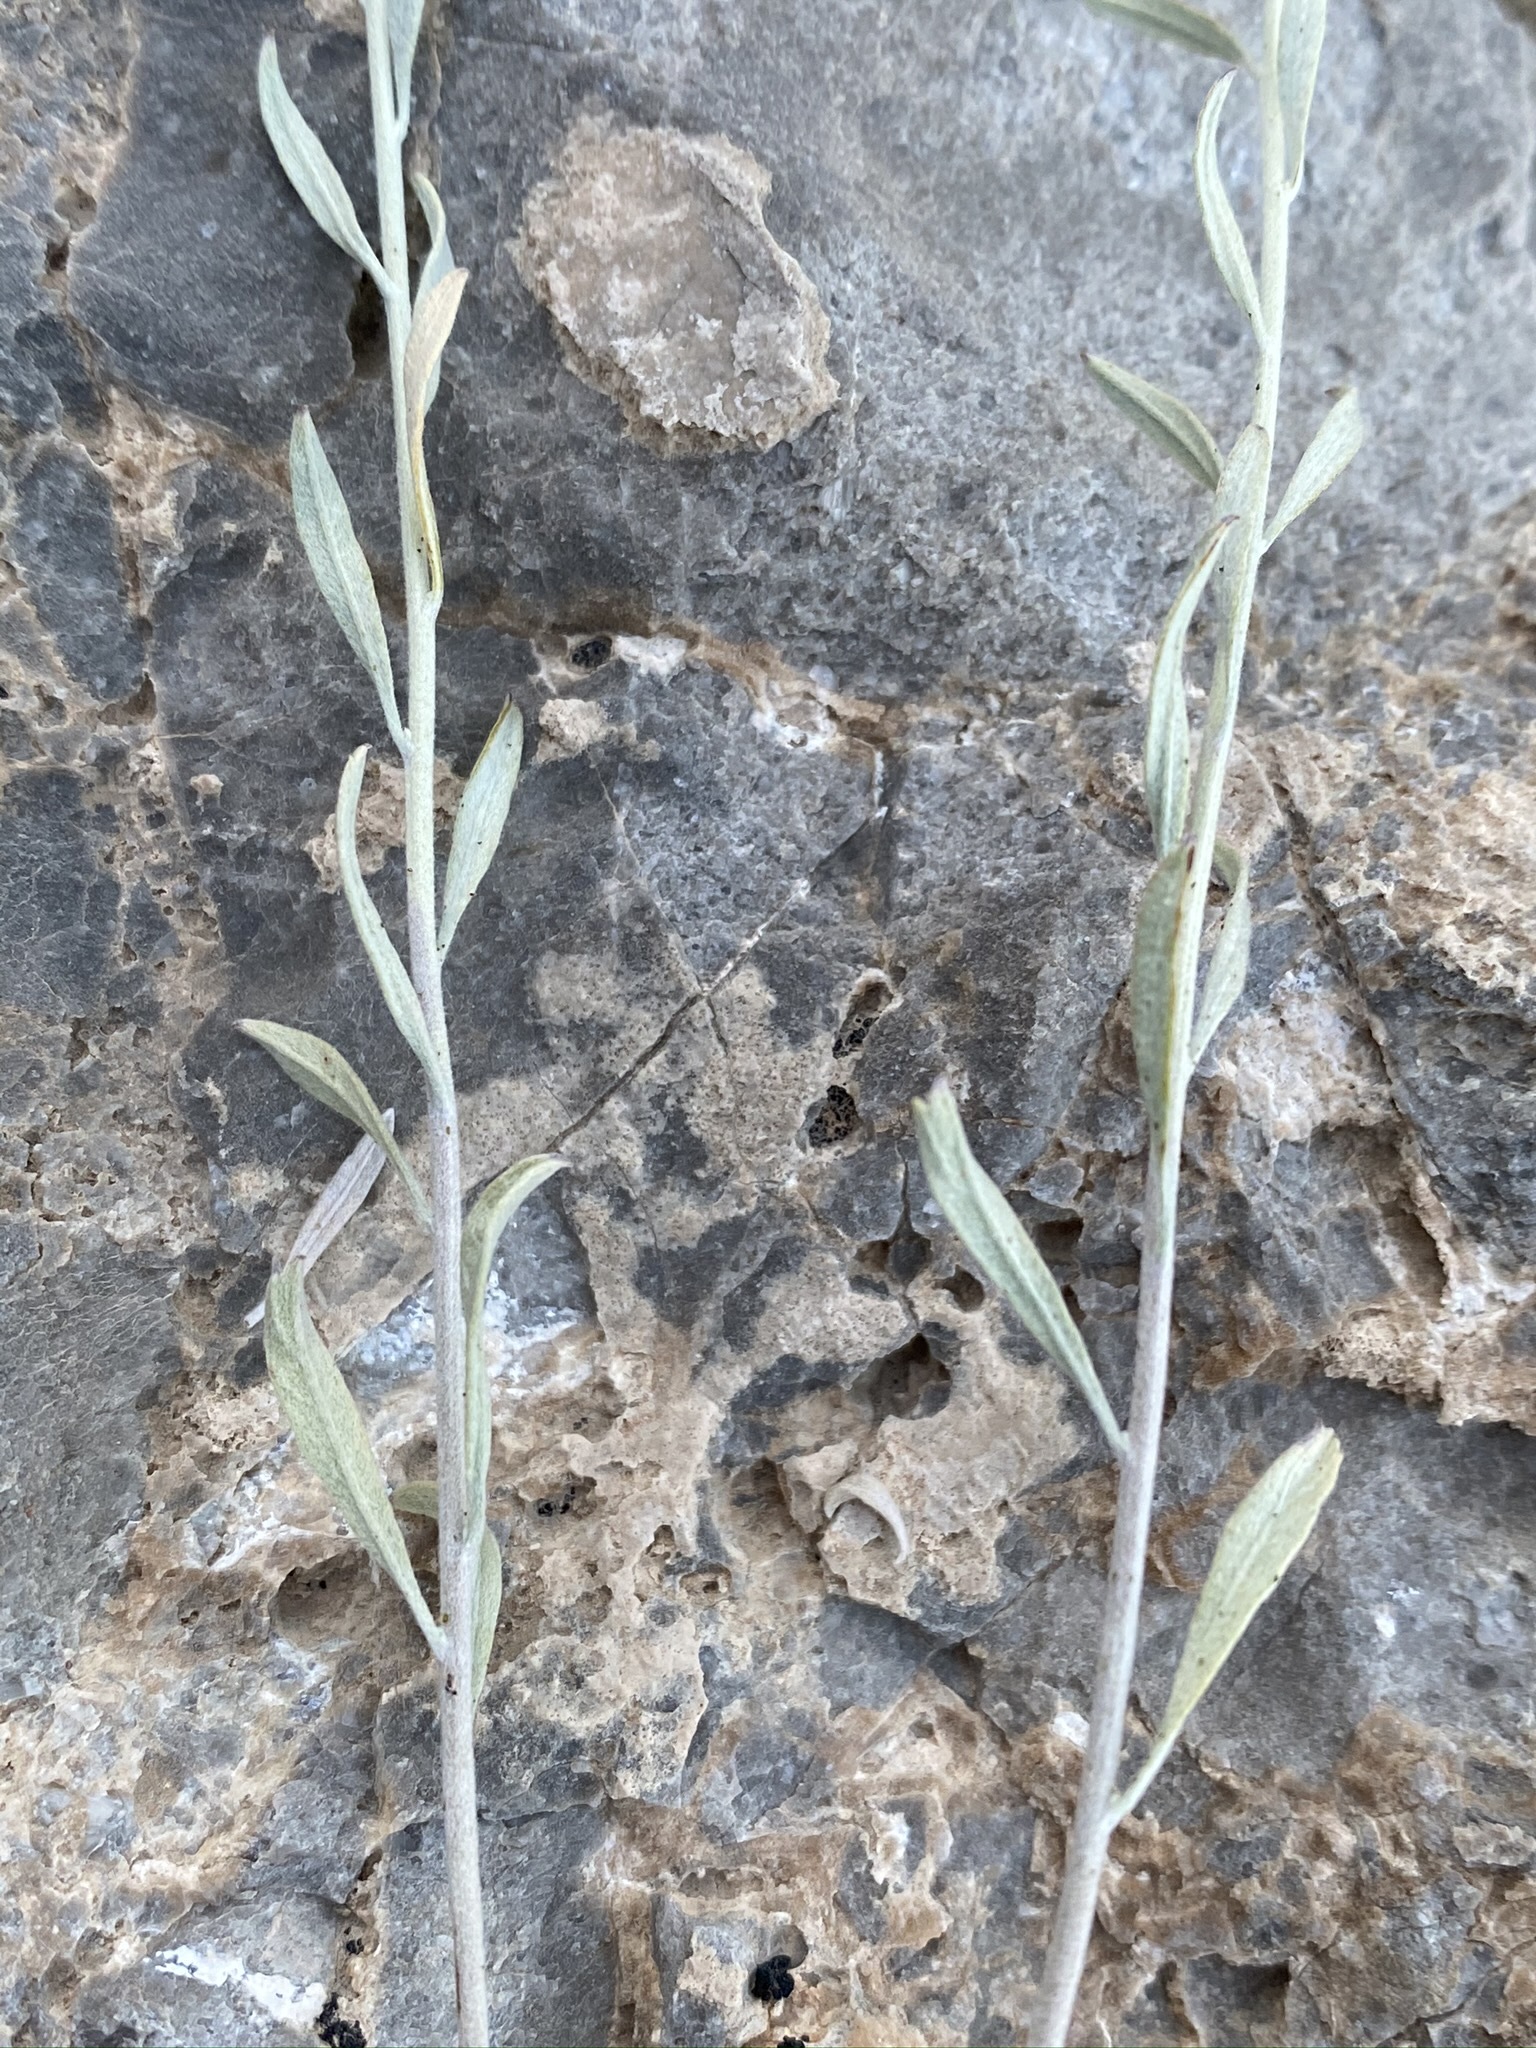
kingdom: Plantae
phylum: Tracheophyta
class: Magnoliopsida
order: Asterales
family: Asteraceae
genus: Artemisia
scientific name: Artemisia bigelovii
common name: Bigelow sagebrush
